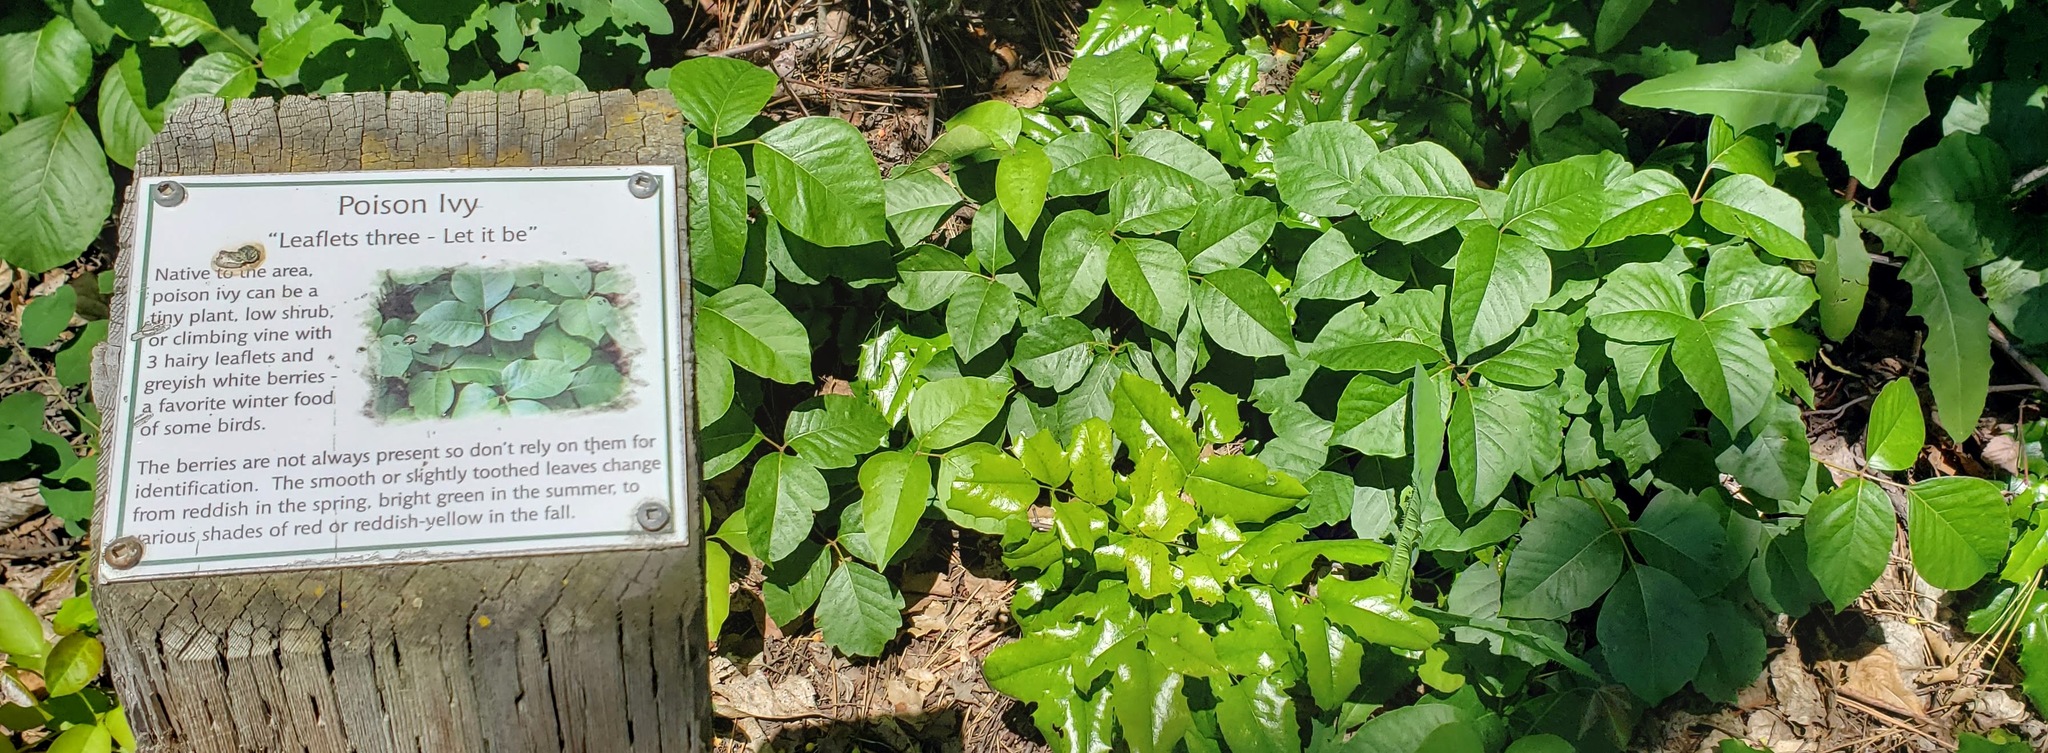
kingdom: Plantae
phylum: Tracheophyta
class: Magnoliopsida
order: Sapindales
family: Anacardiaceae
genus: Toxicodendron
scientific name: Toxicodendron rydbergii
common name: Rydberg's poison-ivy
